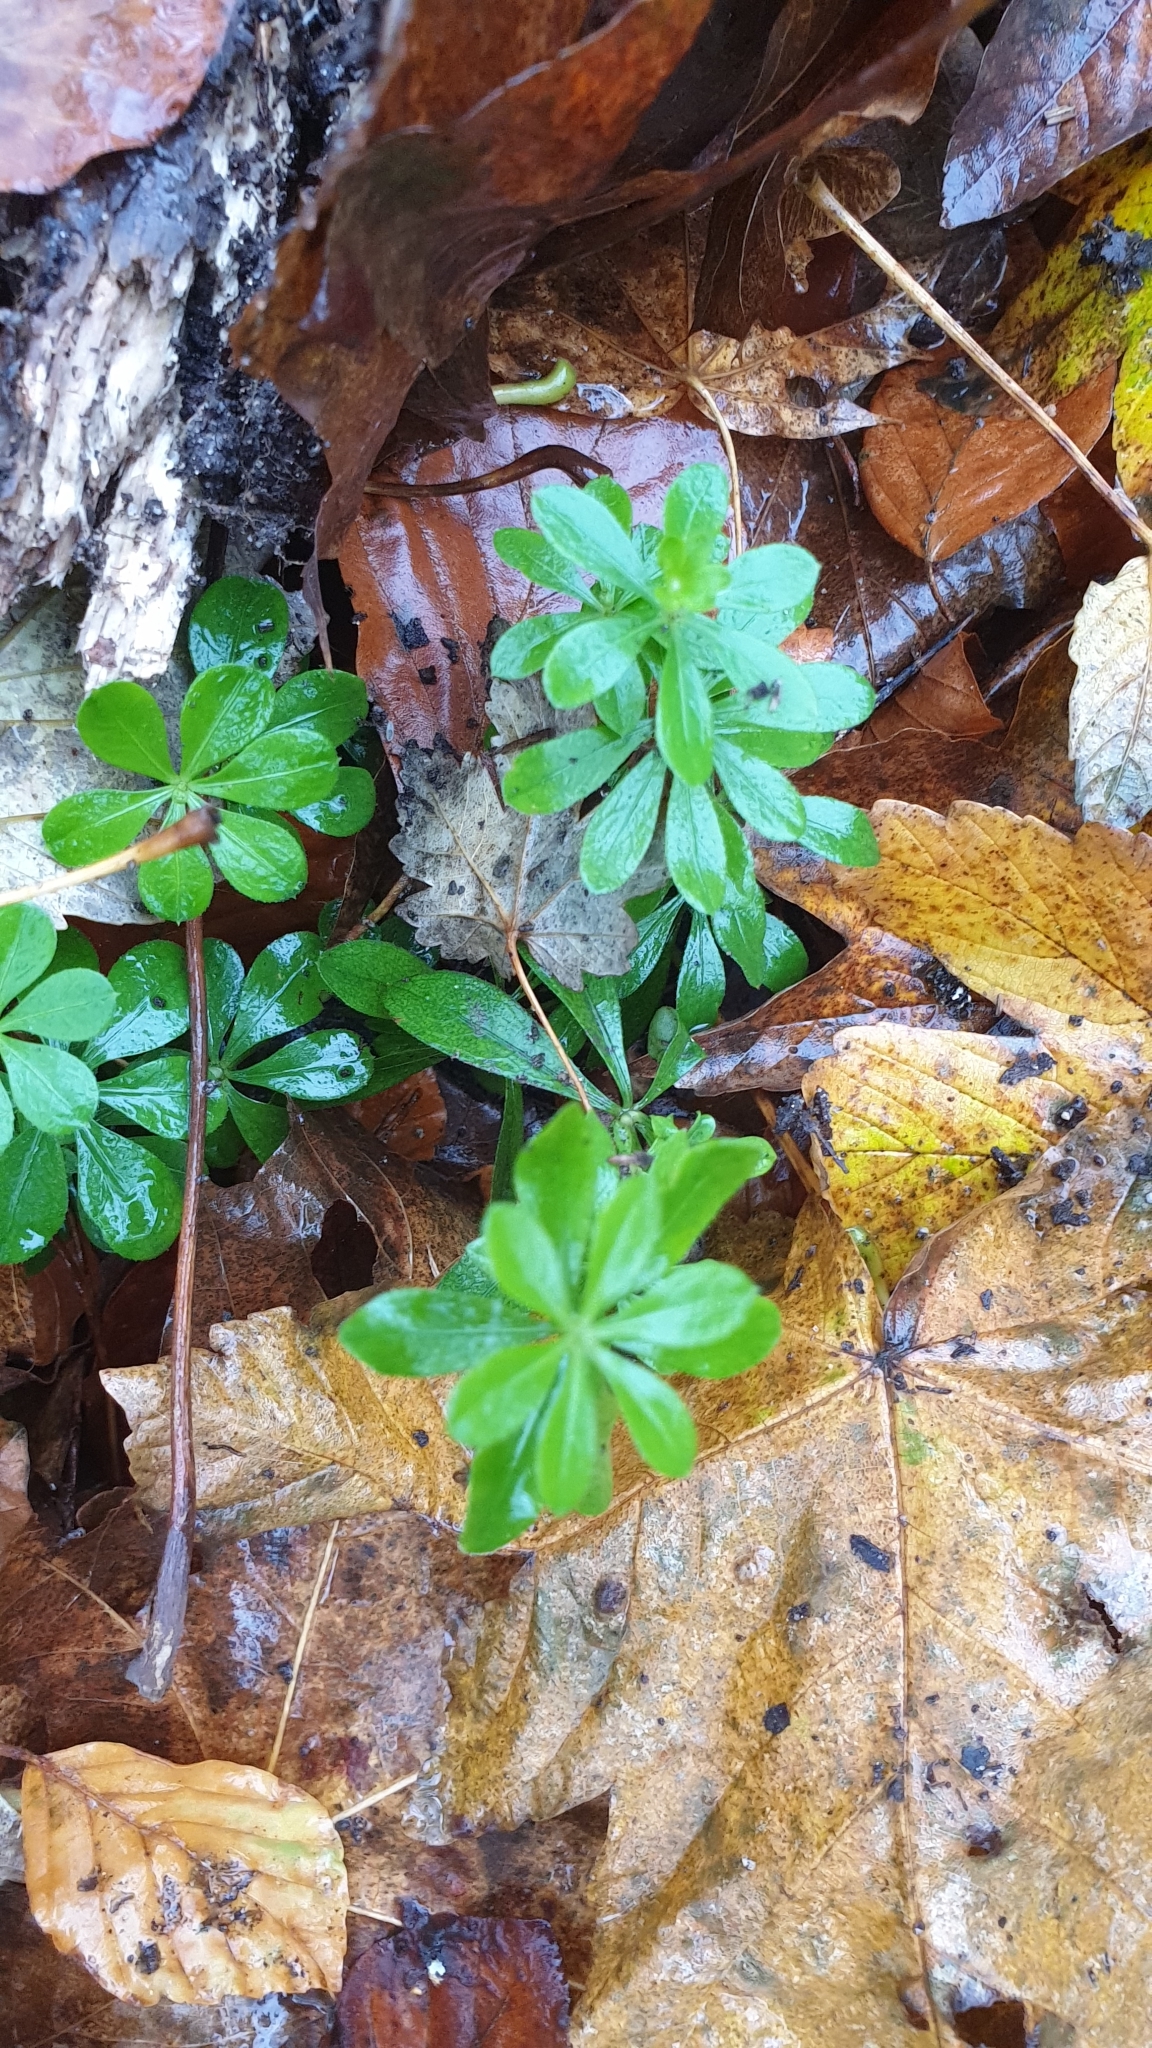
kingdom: Plantae
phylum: Tracheophyta
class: Magnoliopsida
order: Gentianales
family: Rubiaceae
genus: Galium
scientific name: Galium odoratum
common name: Sweet woodruff
